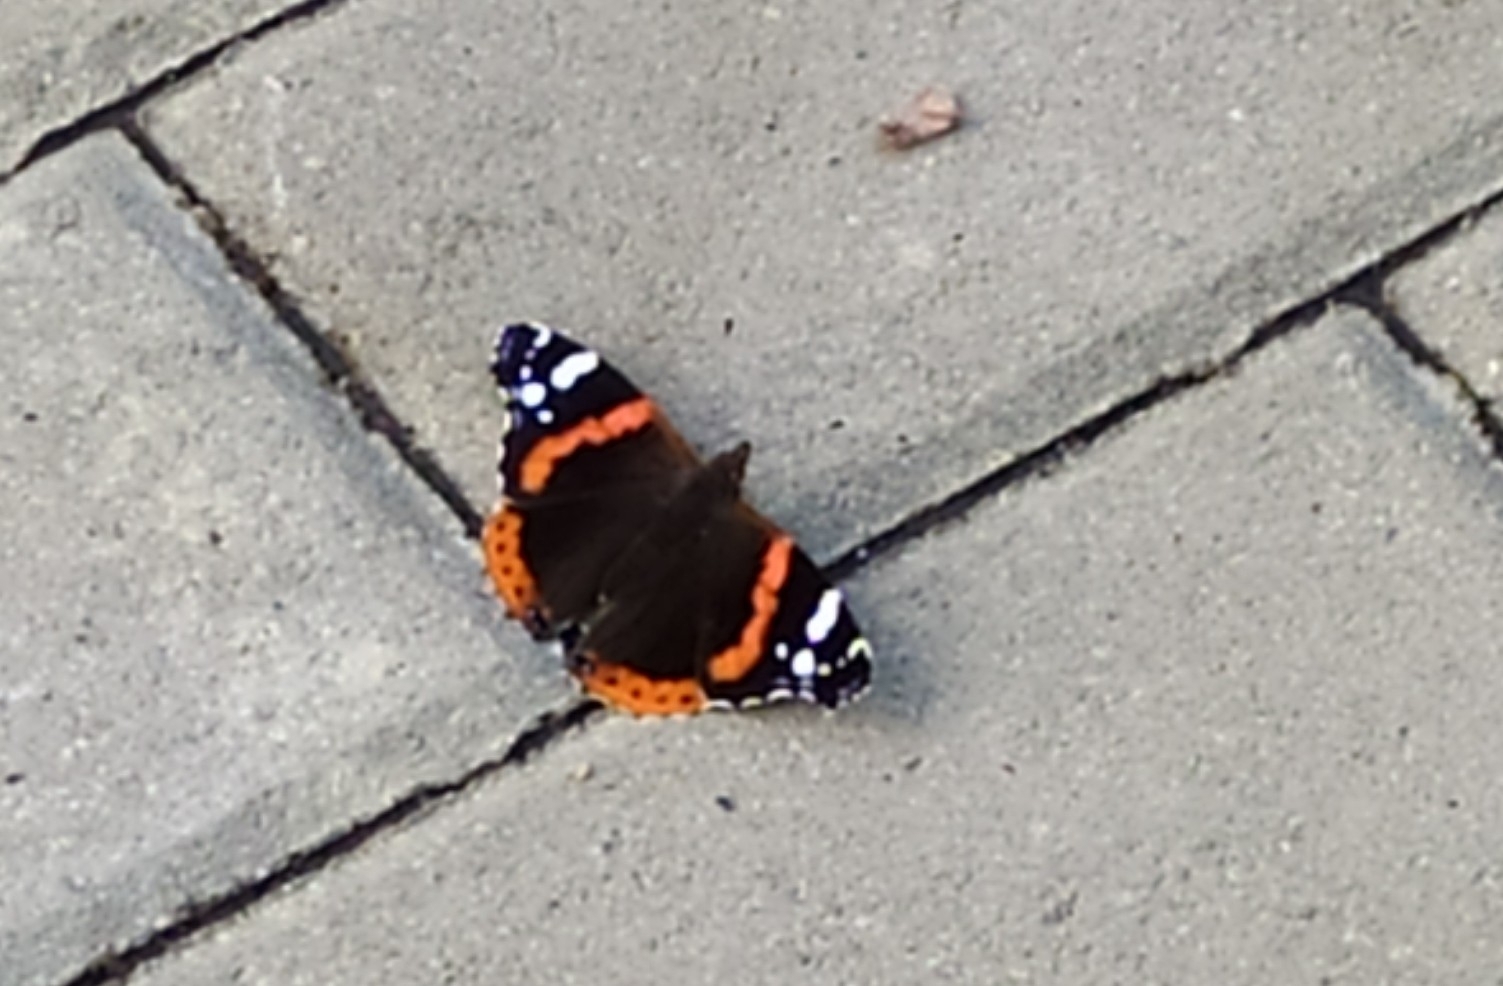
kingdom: Animalia
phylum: Arthropoda
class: Insecta
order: Lepidoptera
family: Nymphalidae
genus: Vanessa
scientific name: Vanessa atalanta
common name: Red admiral
